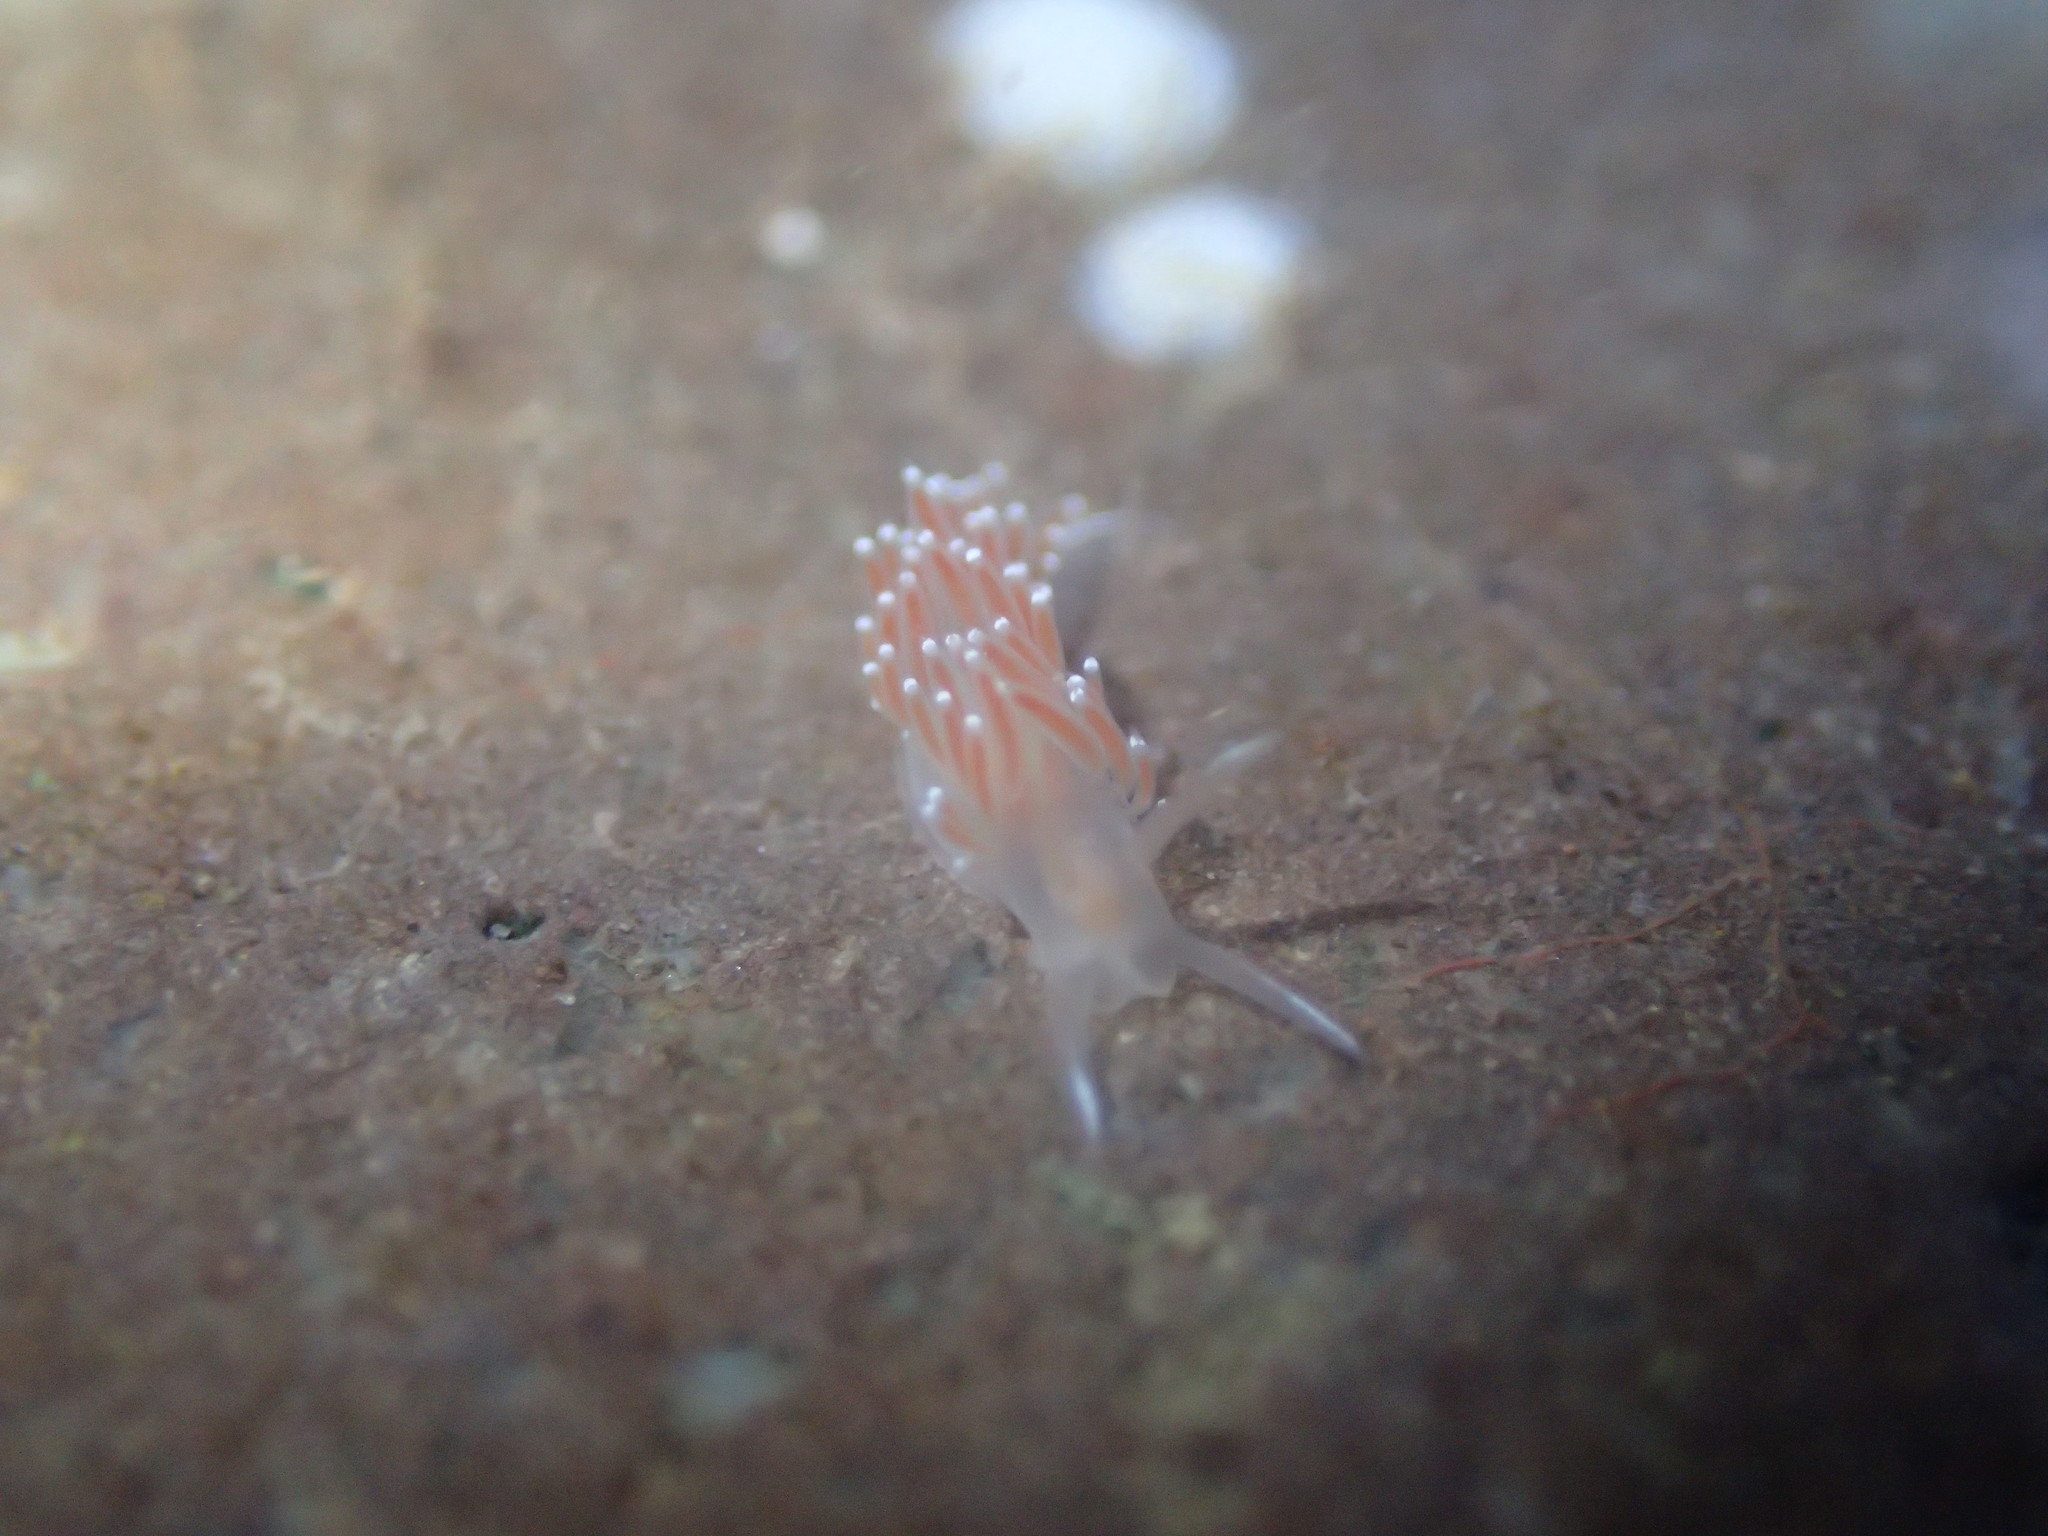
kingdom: Animalia
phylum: Mollusca
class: Gastropoda
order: Nudibranchia
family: Coryphellidae
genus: Coryphella
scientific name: Coryphella gracilis
